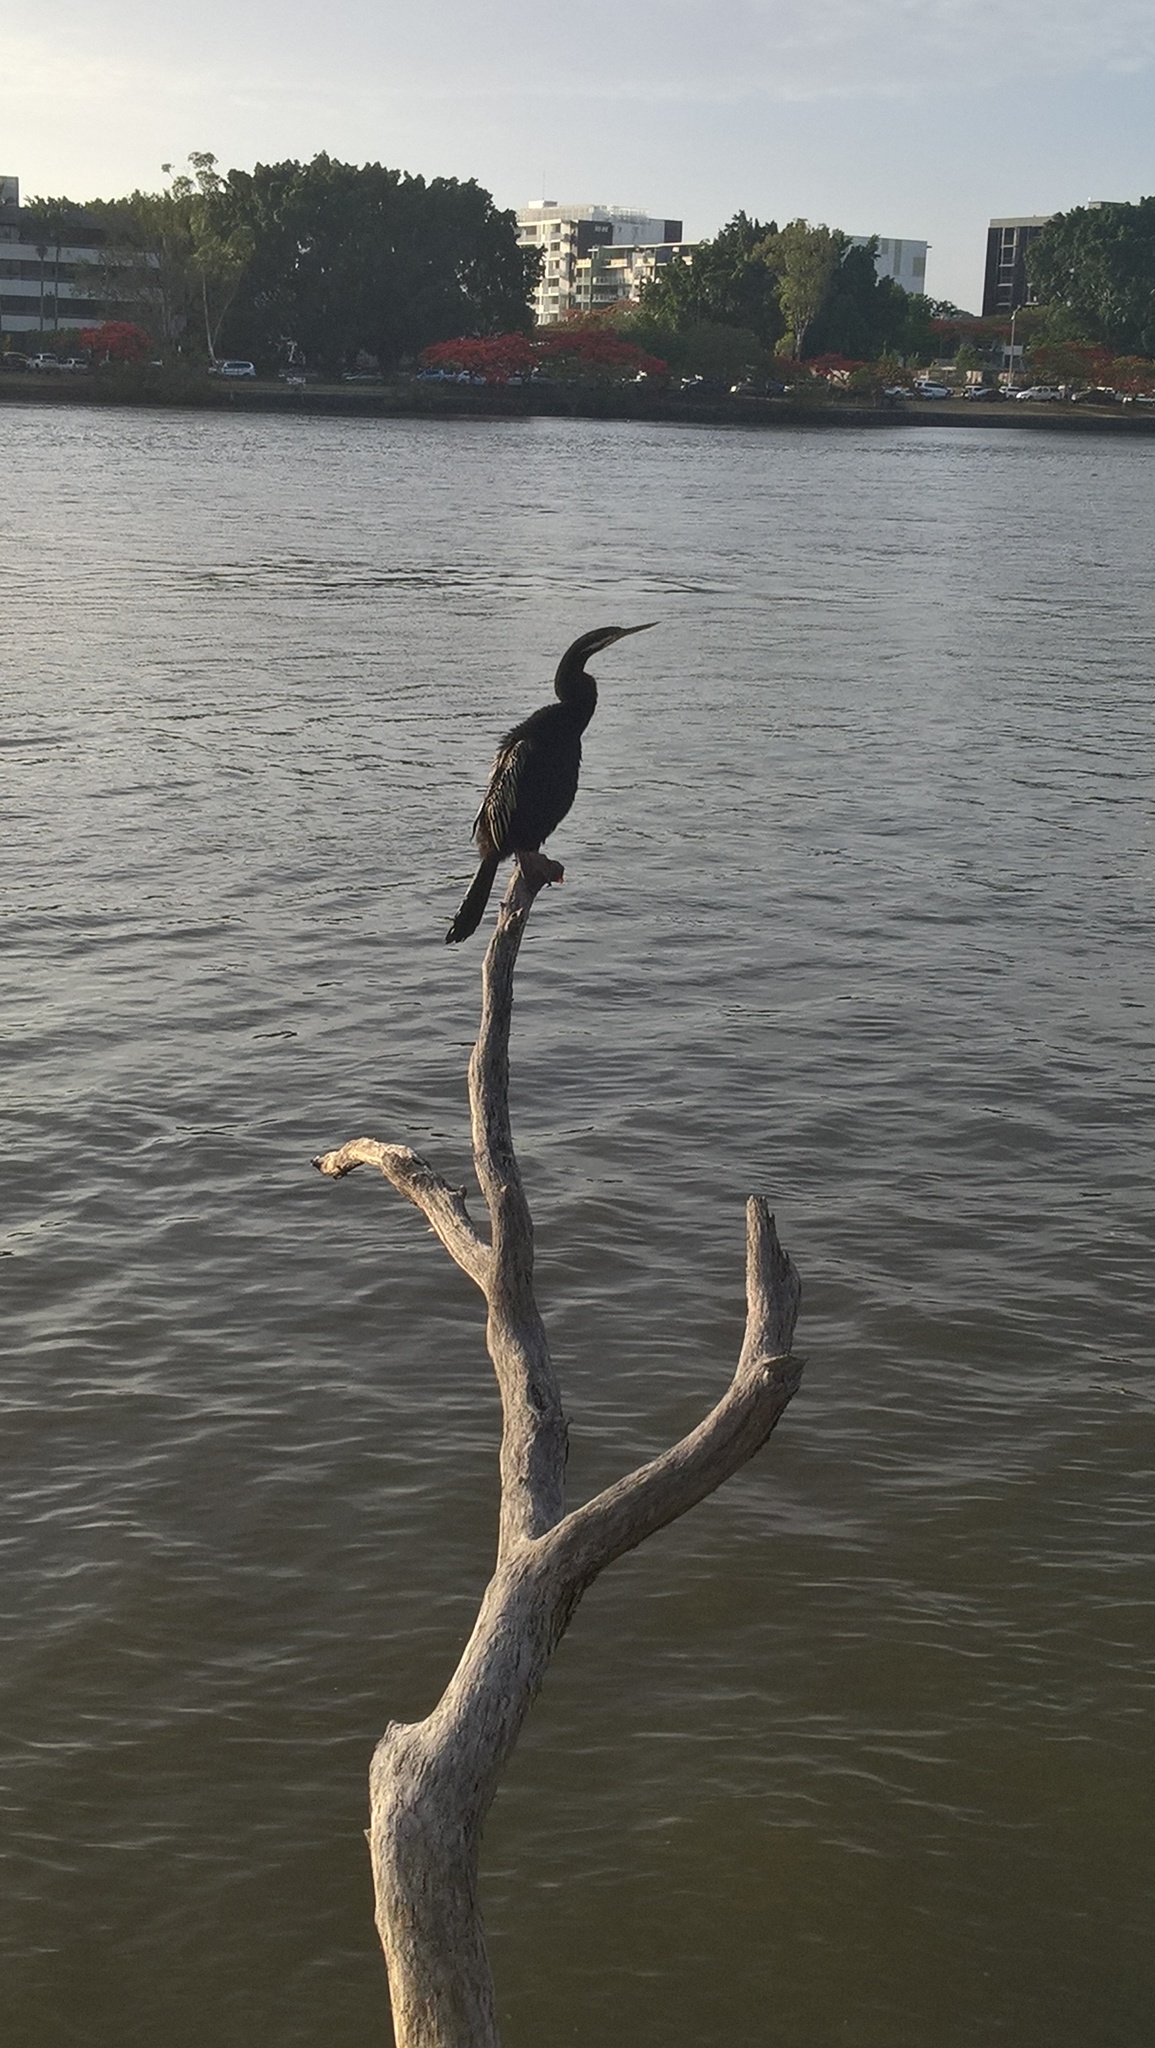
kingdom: Animalia
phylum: Chordata
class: Aves
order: Suliformes
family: Anhingidae
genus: Anhinga
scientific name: Anhinga novaehollandiae
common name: Australasian darter
